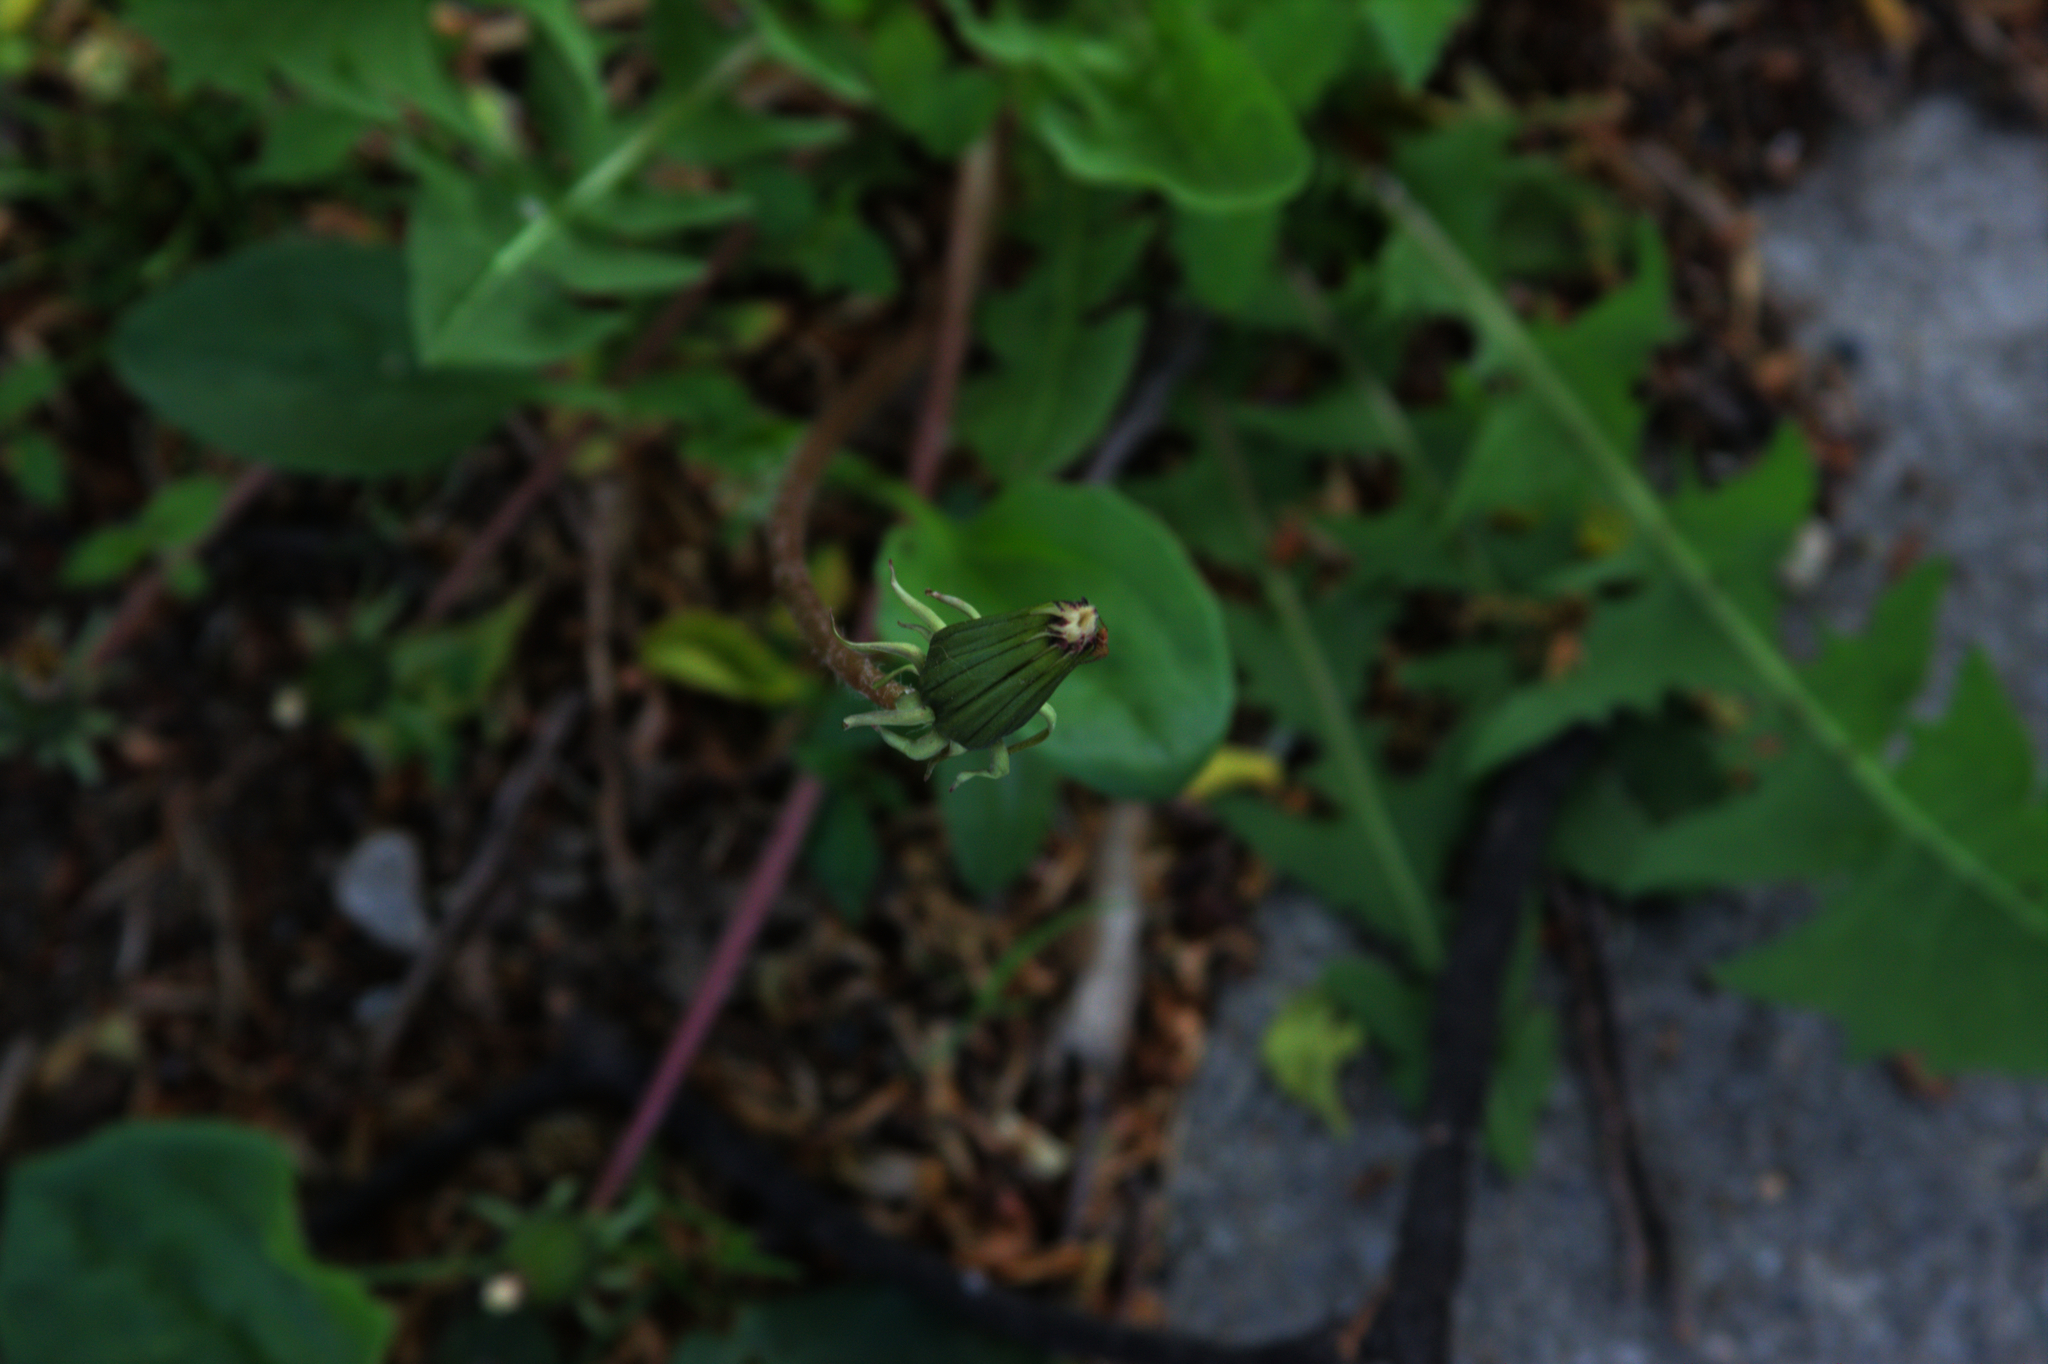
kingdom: Plantae
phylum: Tracheophyta
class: Magnoliopsida
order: Asterales
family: Asteraceae
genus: Taraxacum
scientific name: Taraxacum officinale
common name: Common dandelion
